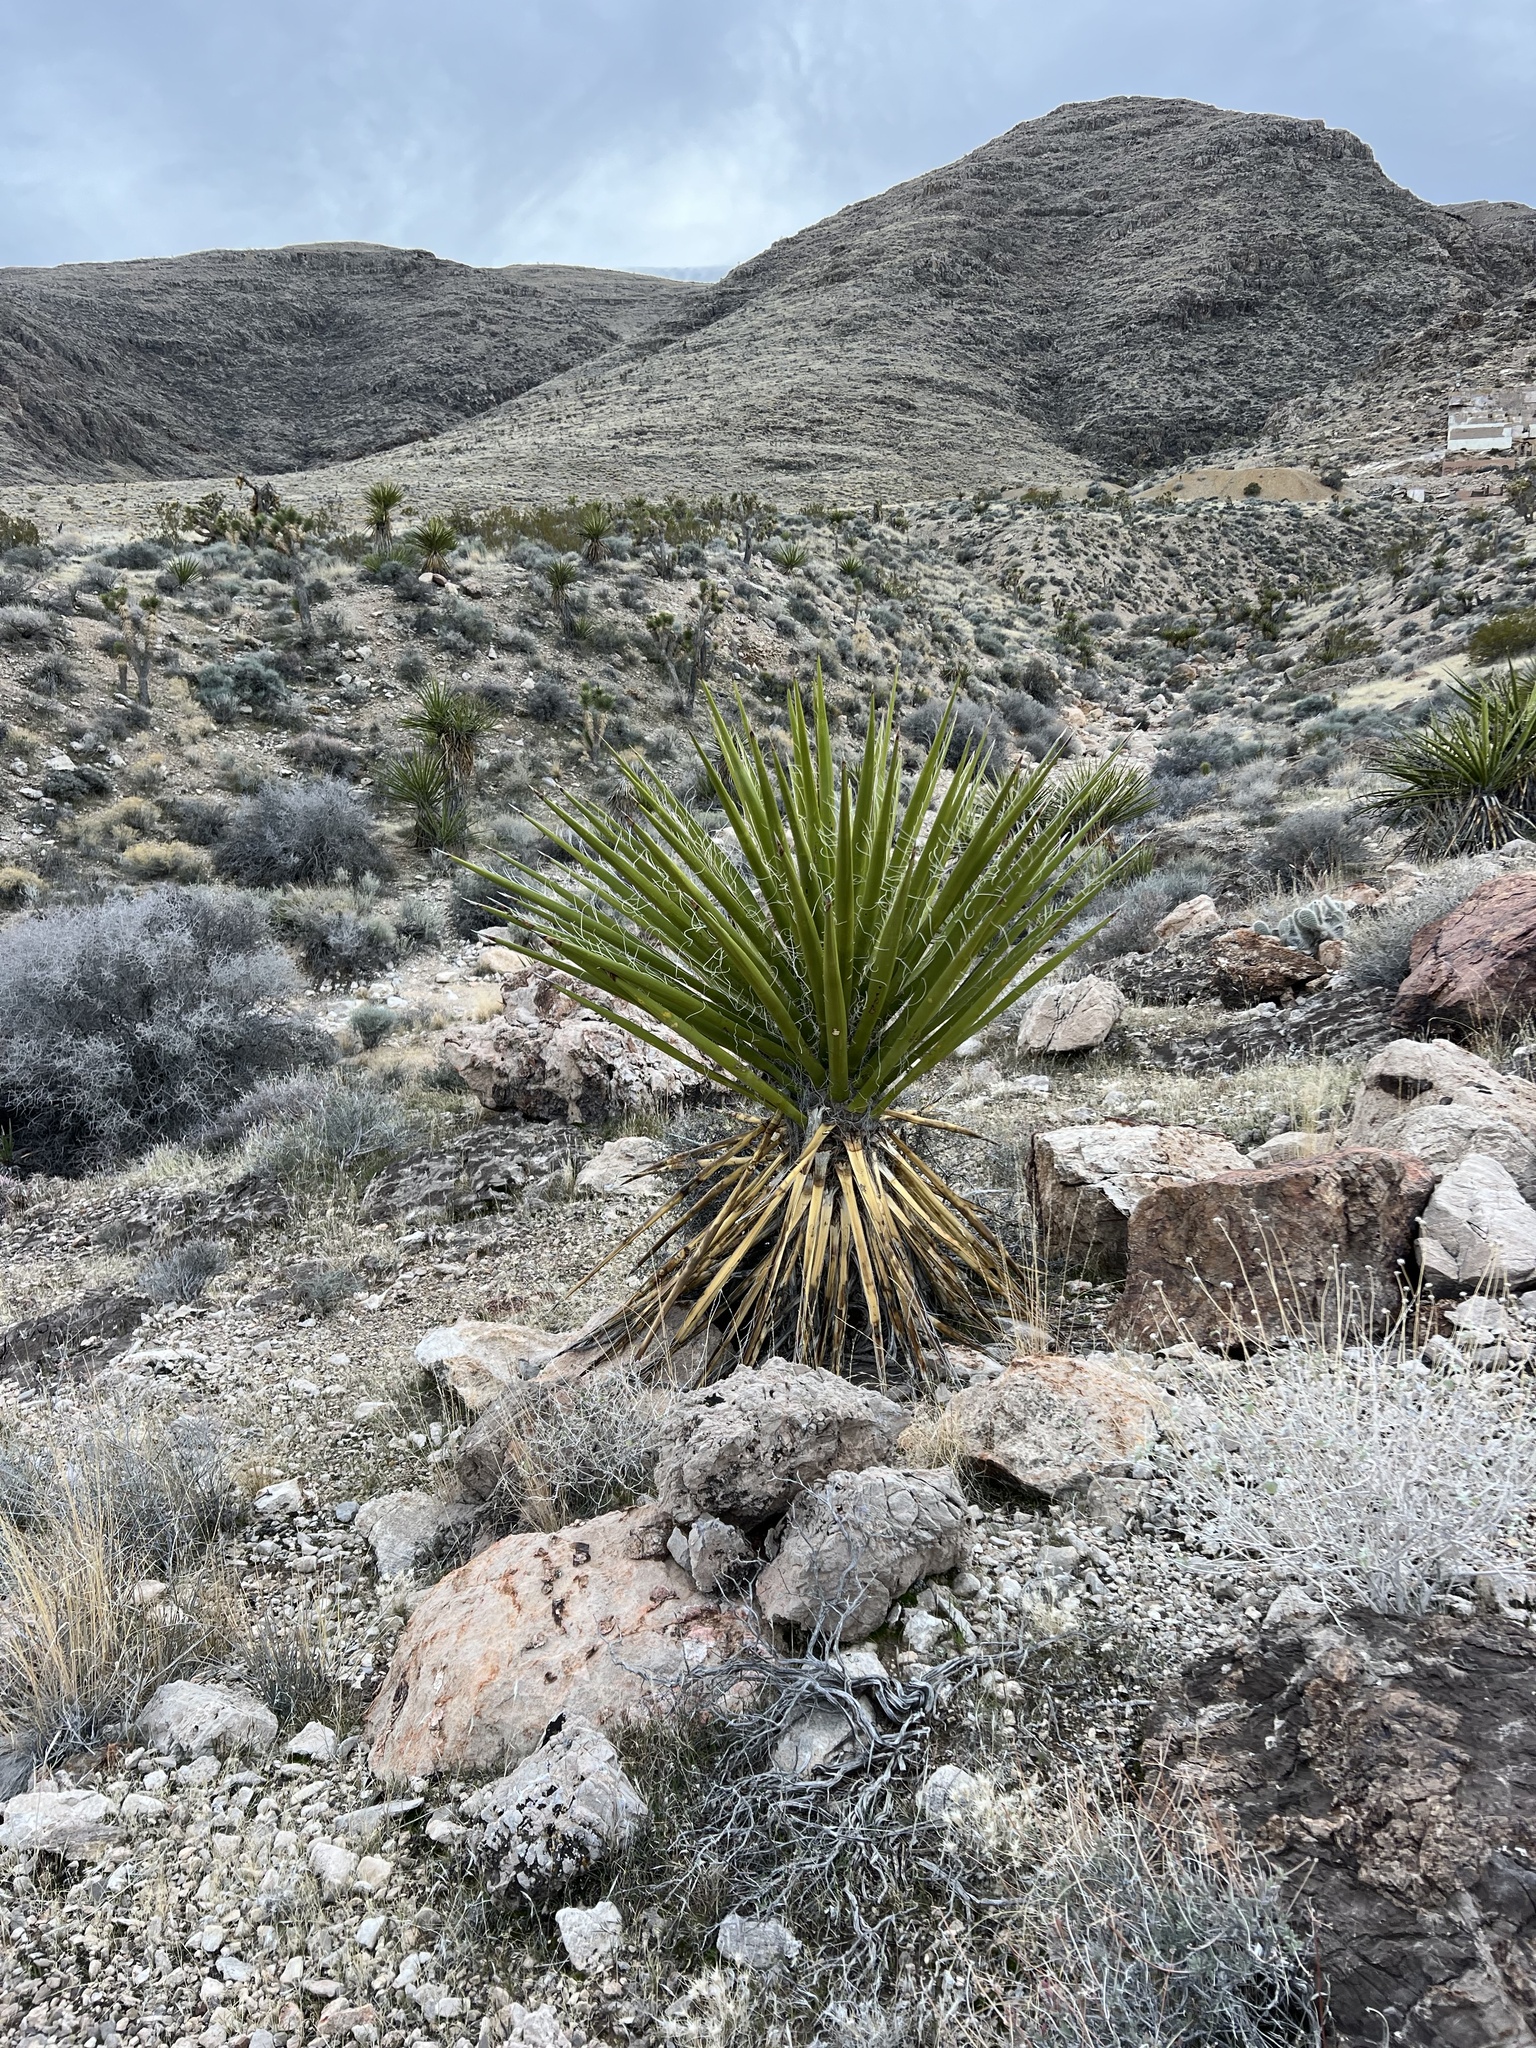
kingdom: Plantae
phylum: Tracheophyta
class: Liliopsida
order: Asparagales
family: Asparagaceae
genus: Yucca
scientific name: Yucca schidigera
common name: Mojave yucca
